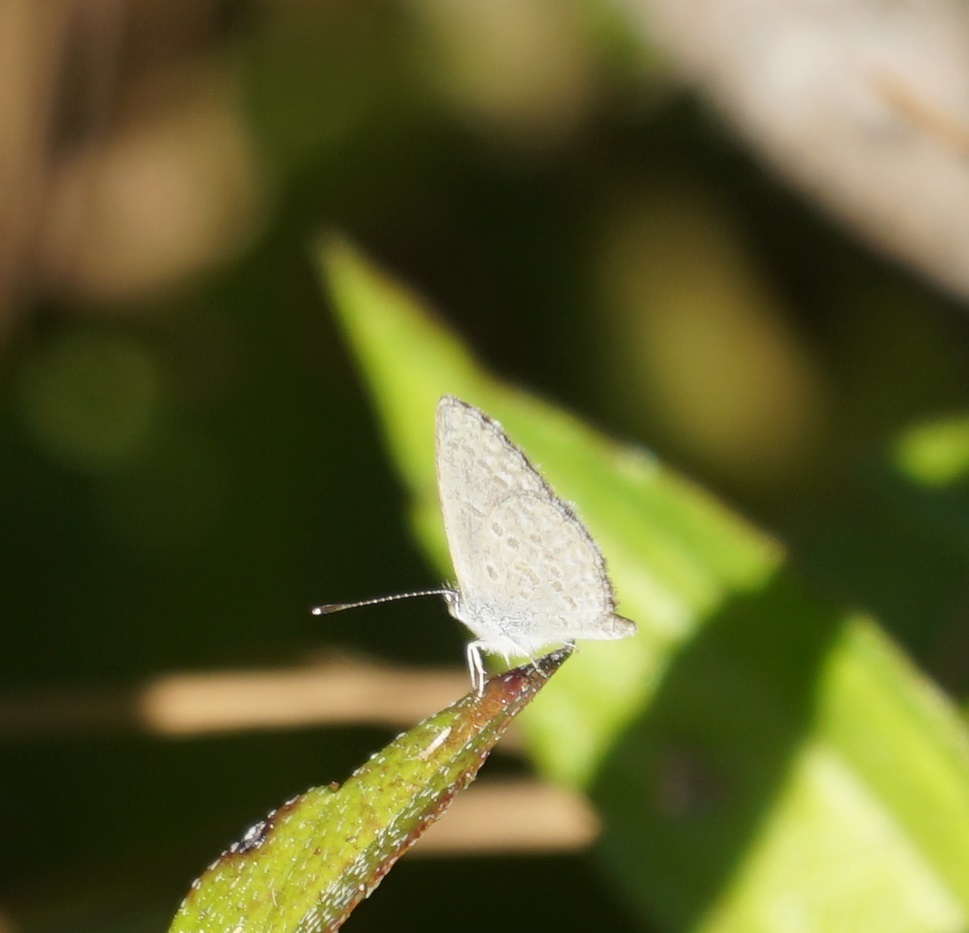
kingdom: Animalia
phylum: Arthropoda
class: Insecta
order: Lepidoptera
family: Lycaenidae
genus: Zizina
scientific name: Zizina labradus
